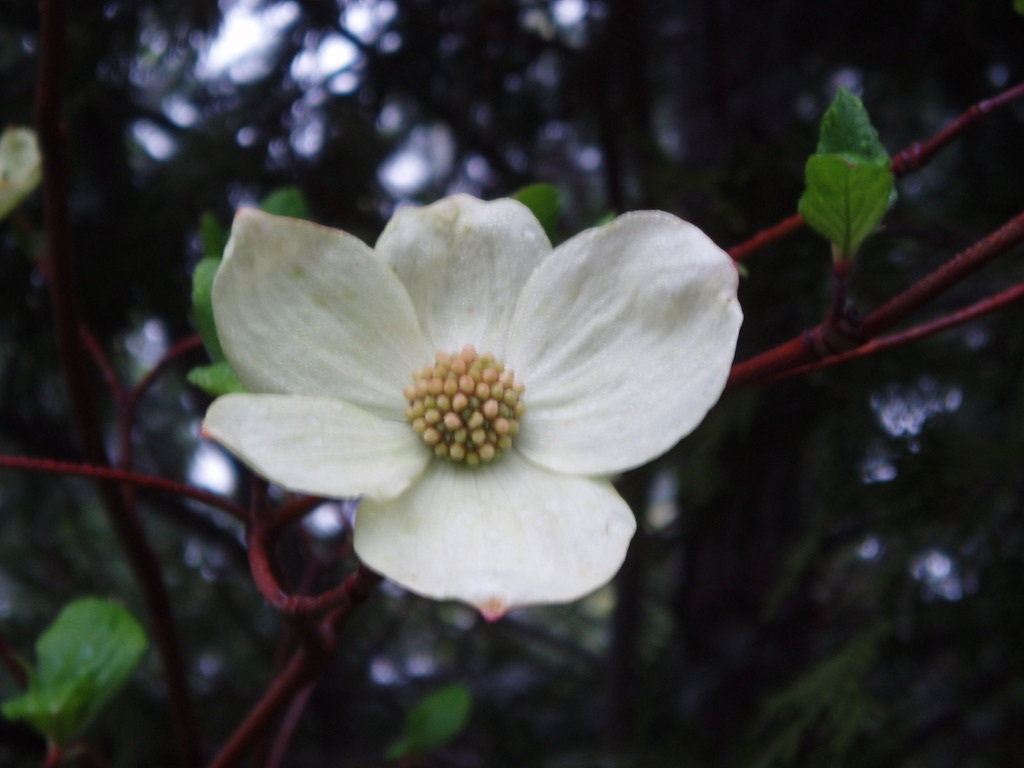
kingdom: Plantae
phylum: Tracheophyta
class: Magnoliopsida
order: Cornales
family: Cornaceae
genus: Cornus
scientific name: Cornus nuttallii
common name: Pacific dogwood
